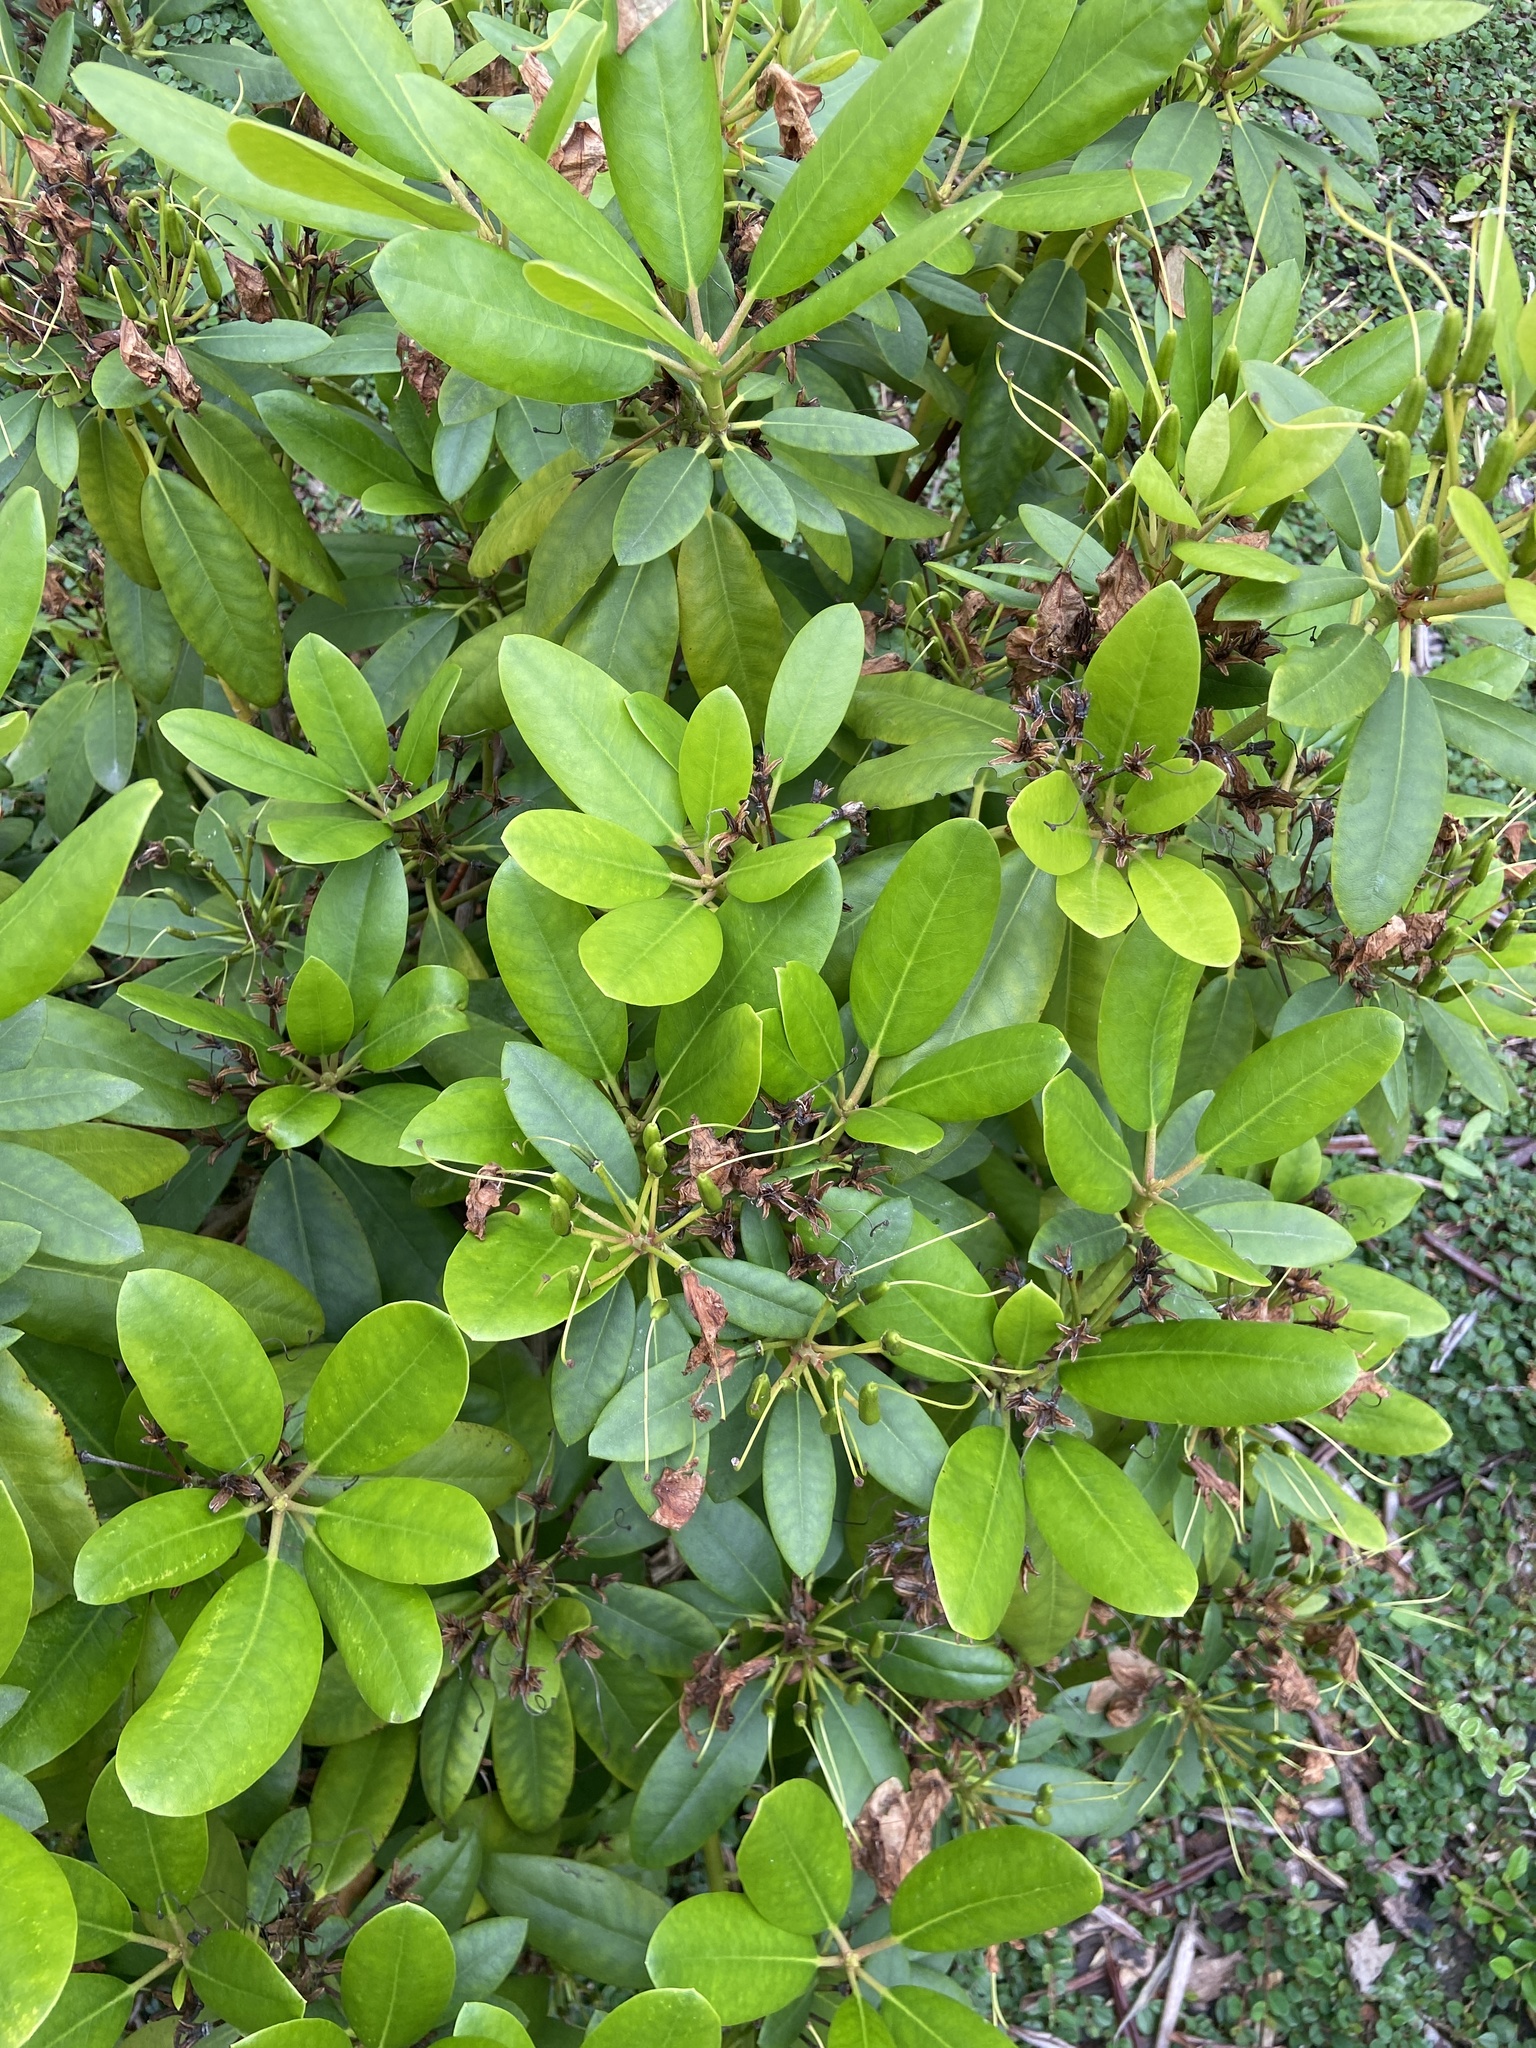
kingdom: Animalia
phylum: Arthropoda
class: Insecta
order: Hemiptera
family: Cicadellidae
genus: Graphocephala
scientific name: Graphocephala fennahi
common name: Rhododendron leafhopper
